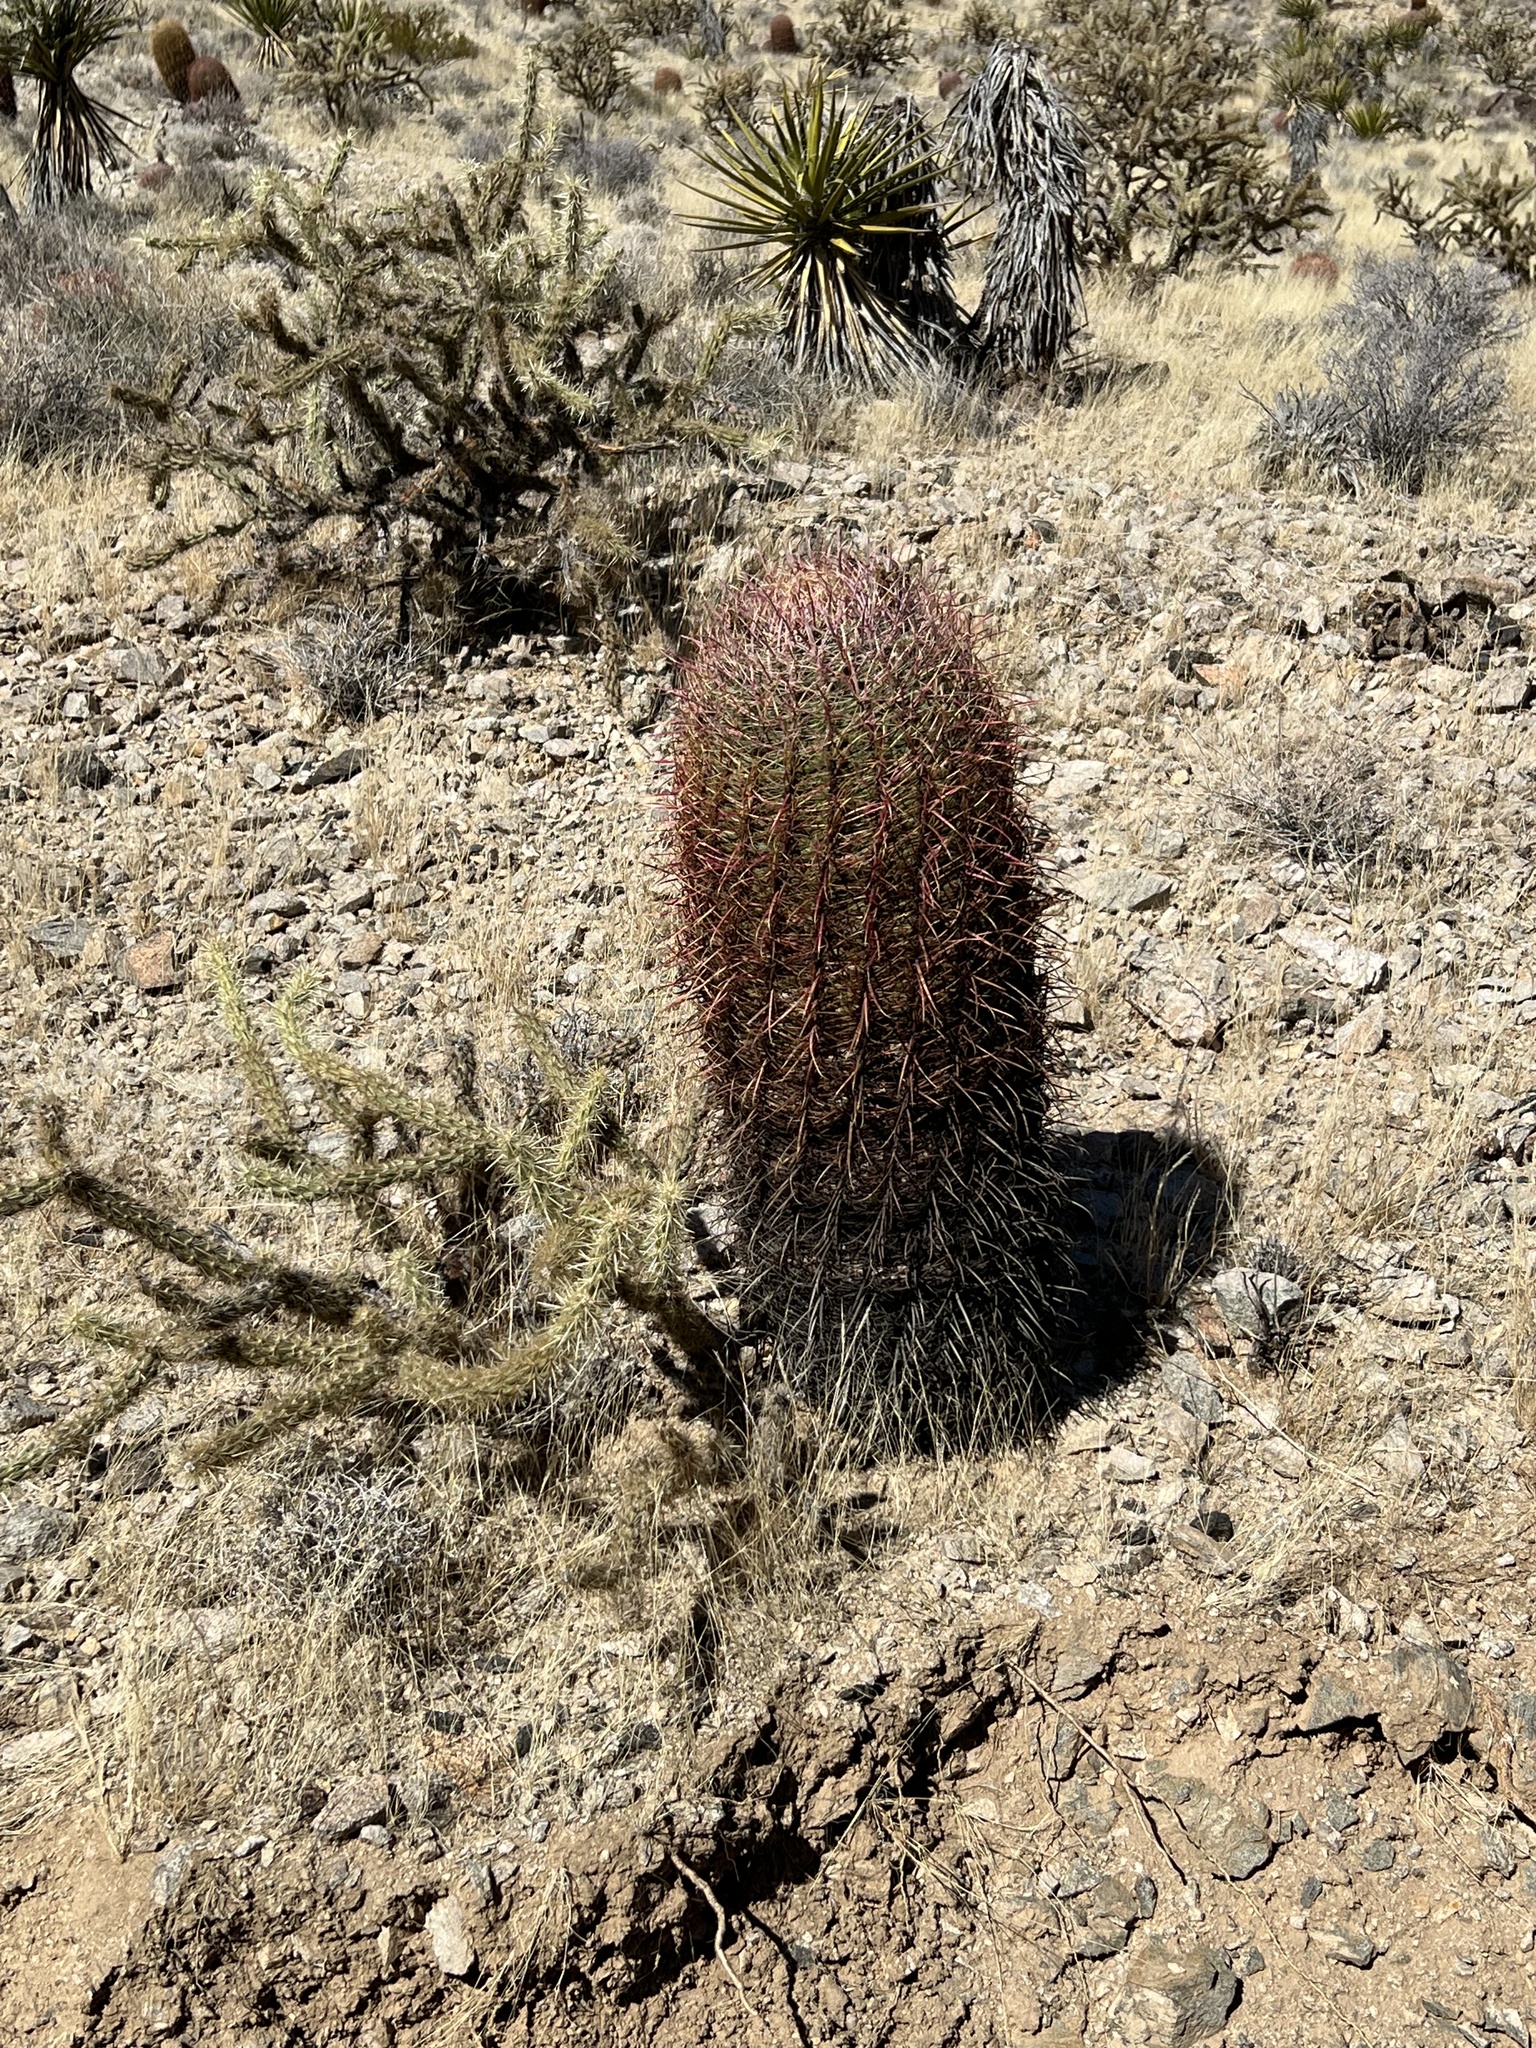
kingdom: Plantae
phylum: Tracheophyta
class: Magnoliopsida
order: Caryophyllales
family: Cactaceae
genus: Ferocactus
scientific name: Ferocactus cylindraceus
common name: California barrel cactus
